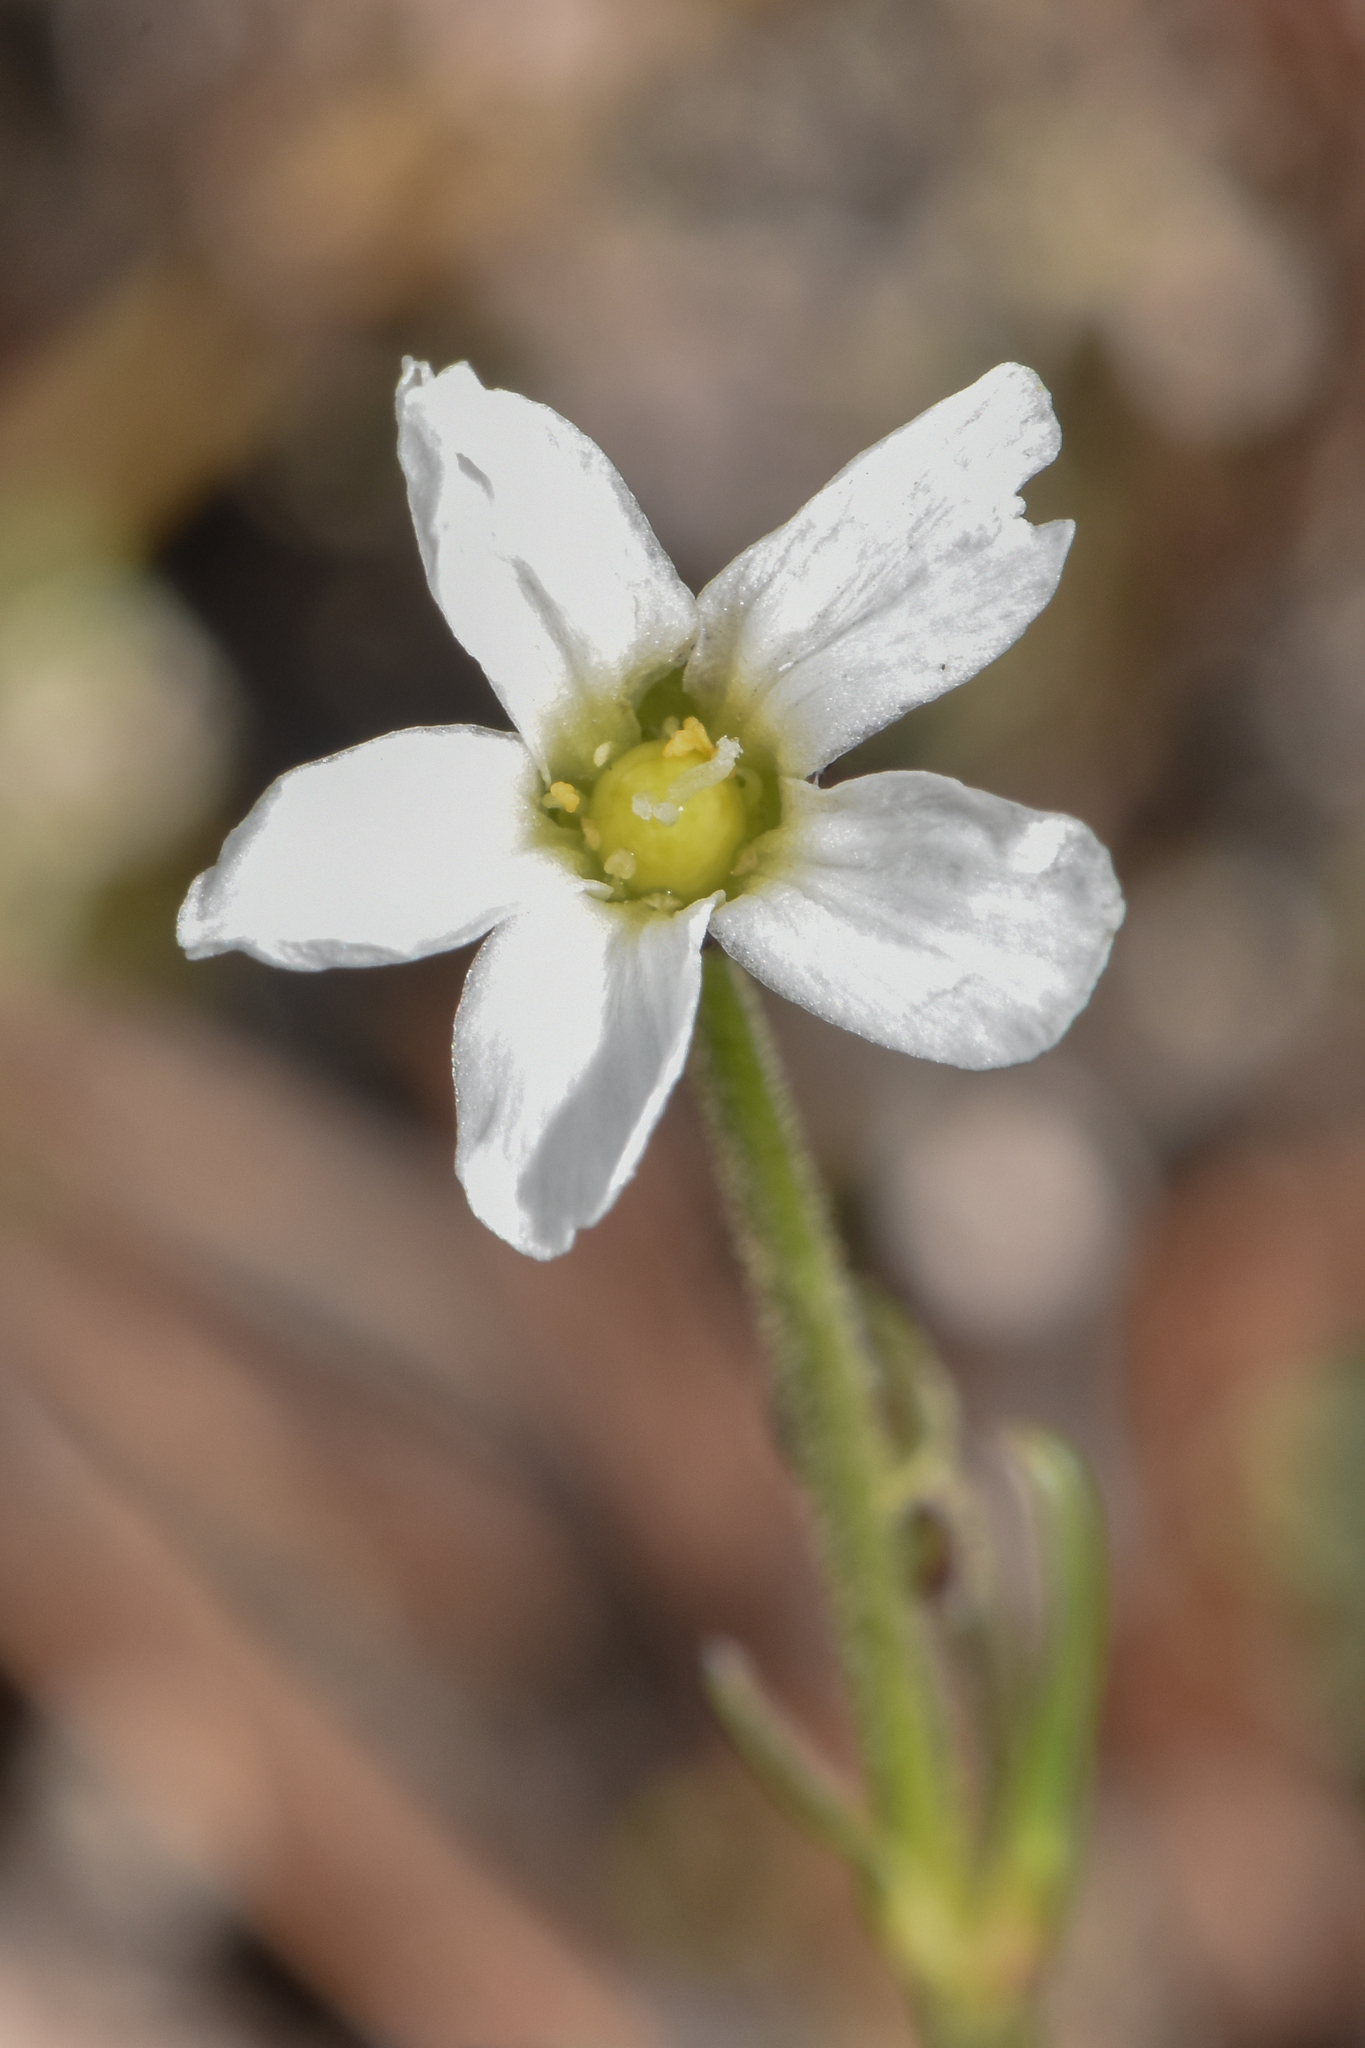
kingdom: Plantae
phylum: Tracheophyta
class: Magnoliopsida
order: Caryophyllales
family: Caryophyllaceae
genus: Eremogone
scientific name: Eremogone capillaris
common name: Slender mountain sandwort
